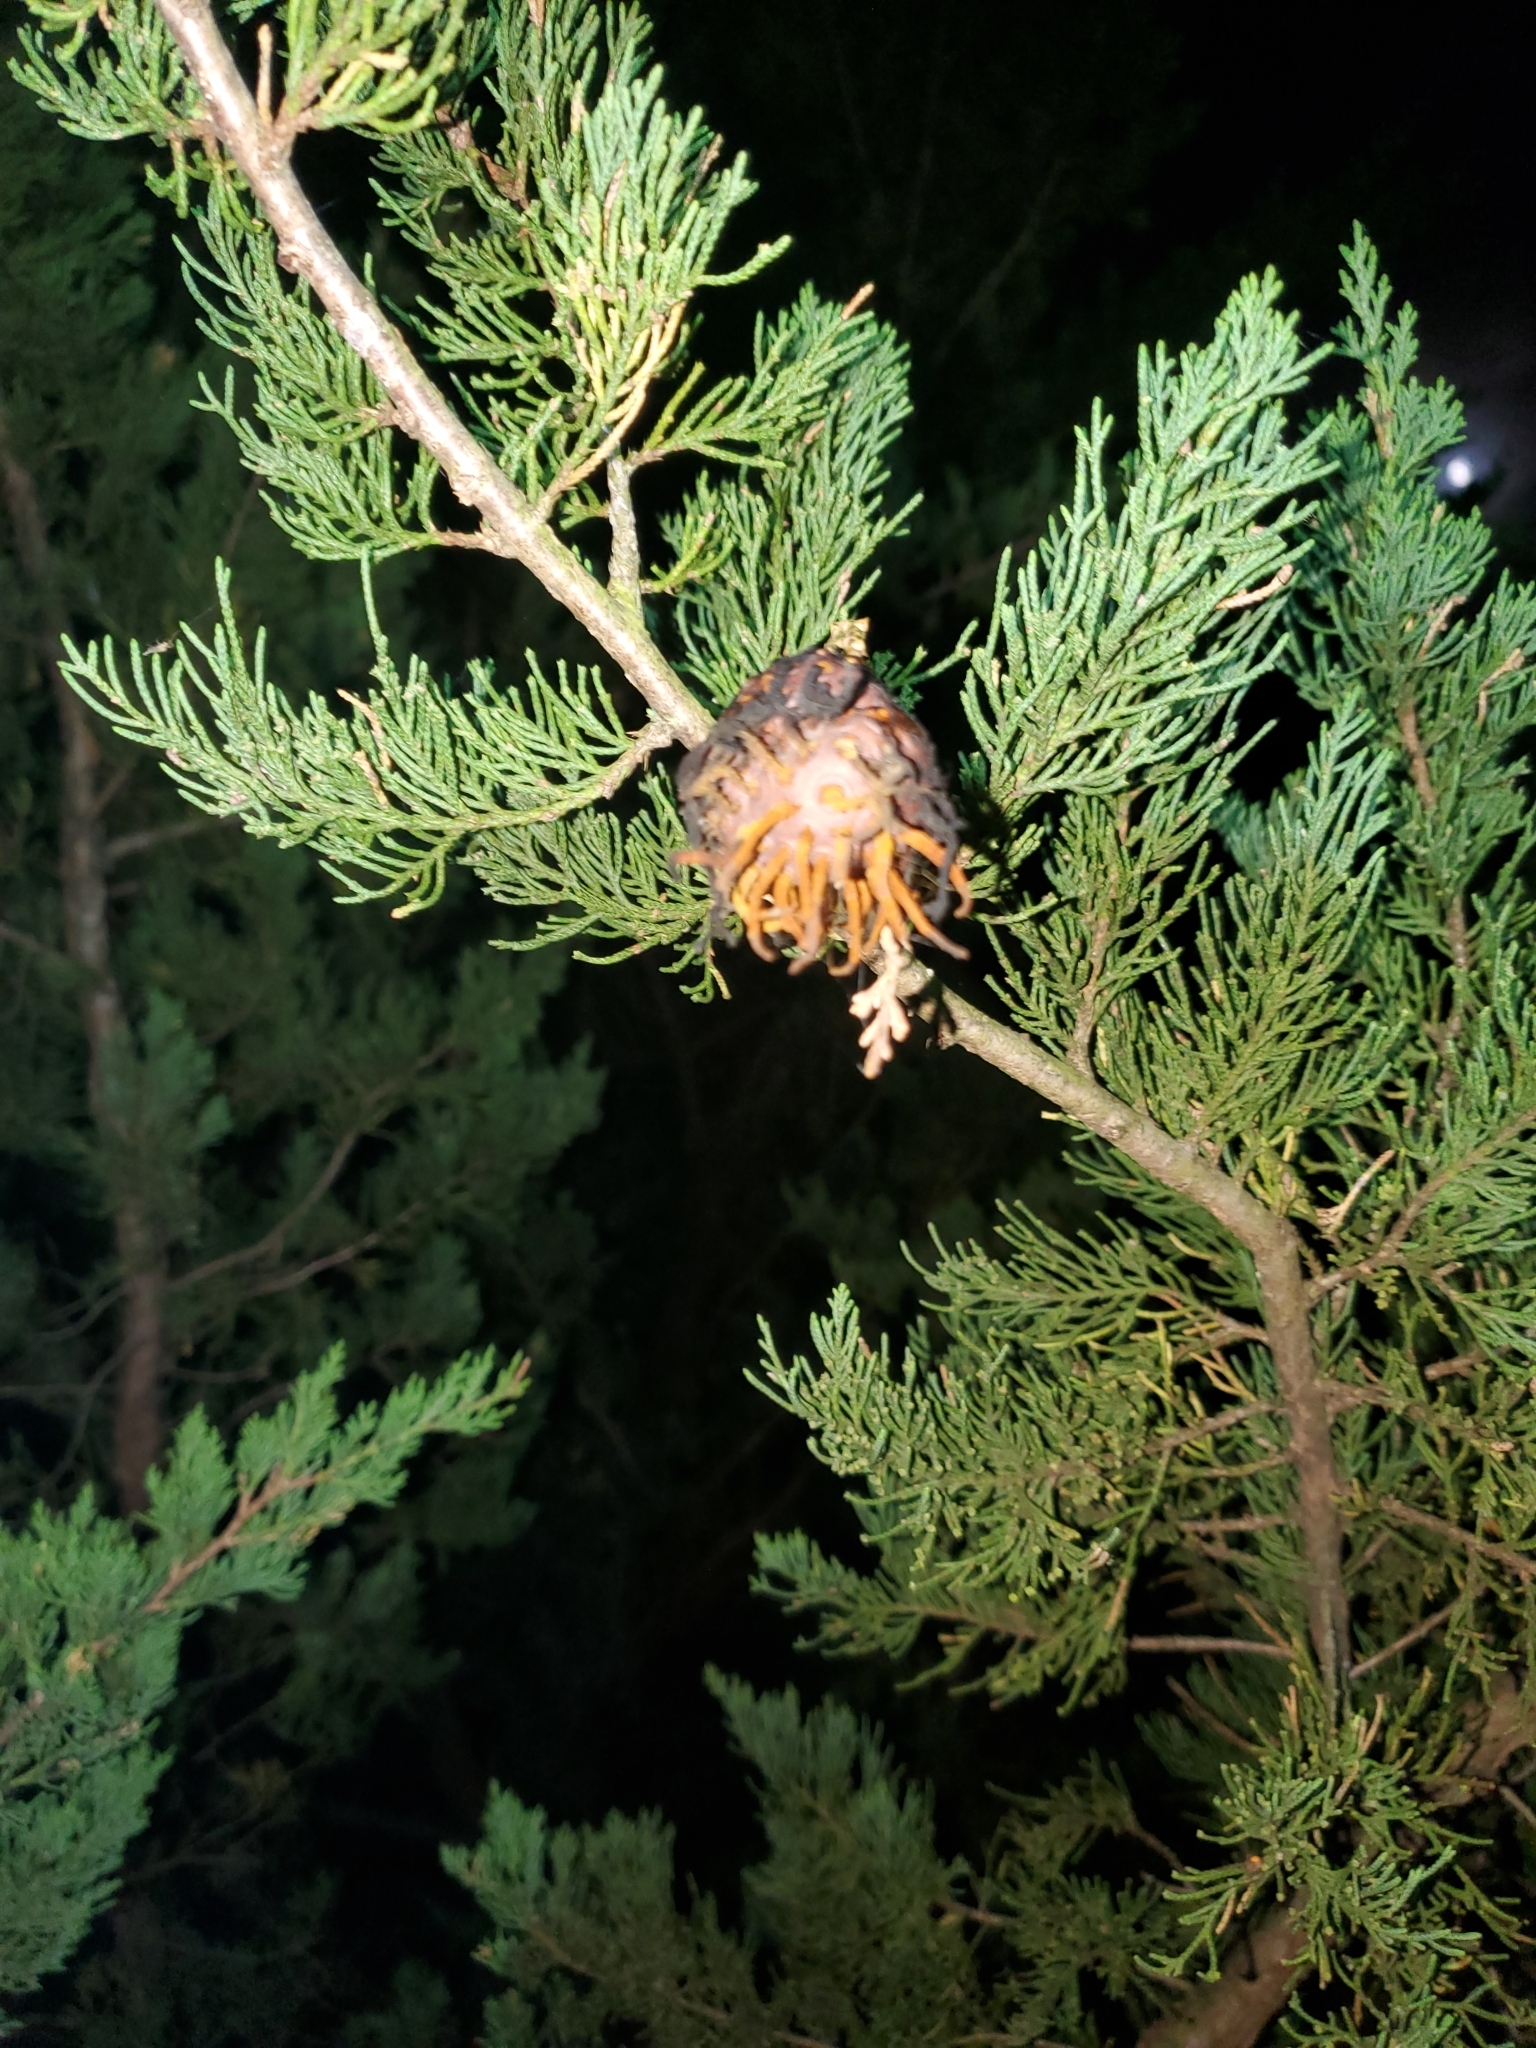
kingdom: Fungi
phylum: Basidiomycota
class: Pucciniomycetes
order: Pucciniales
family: Gymnosporangiaceae
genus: Gymnosporangium
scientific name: Gymnosporangium juniperi-virginianae
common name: Juniper-apple rust
